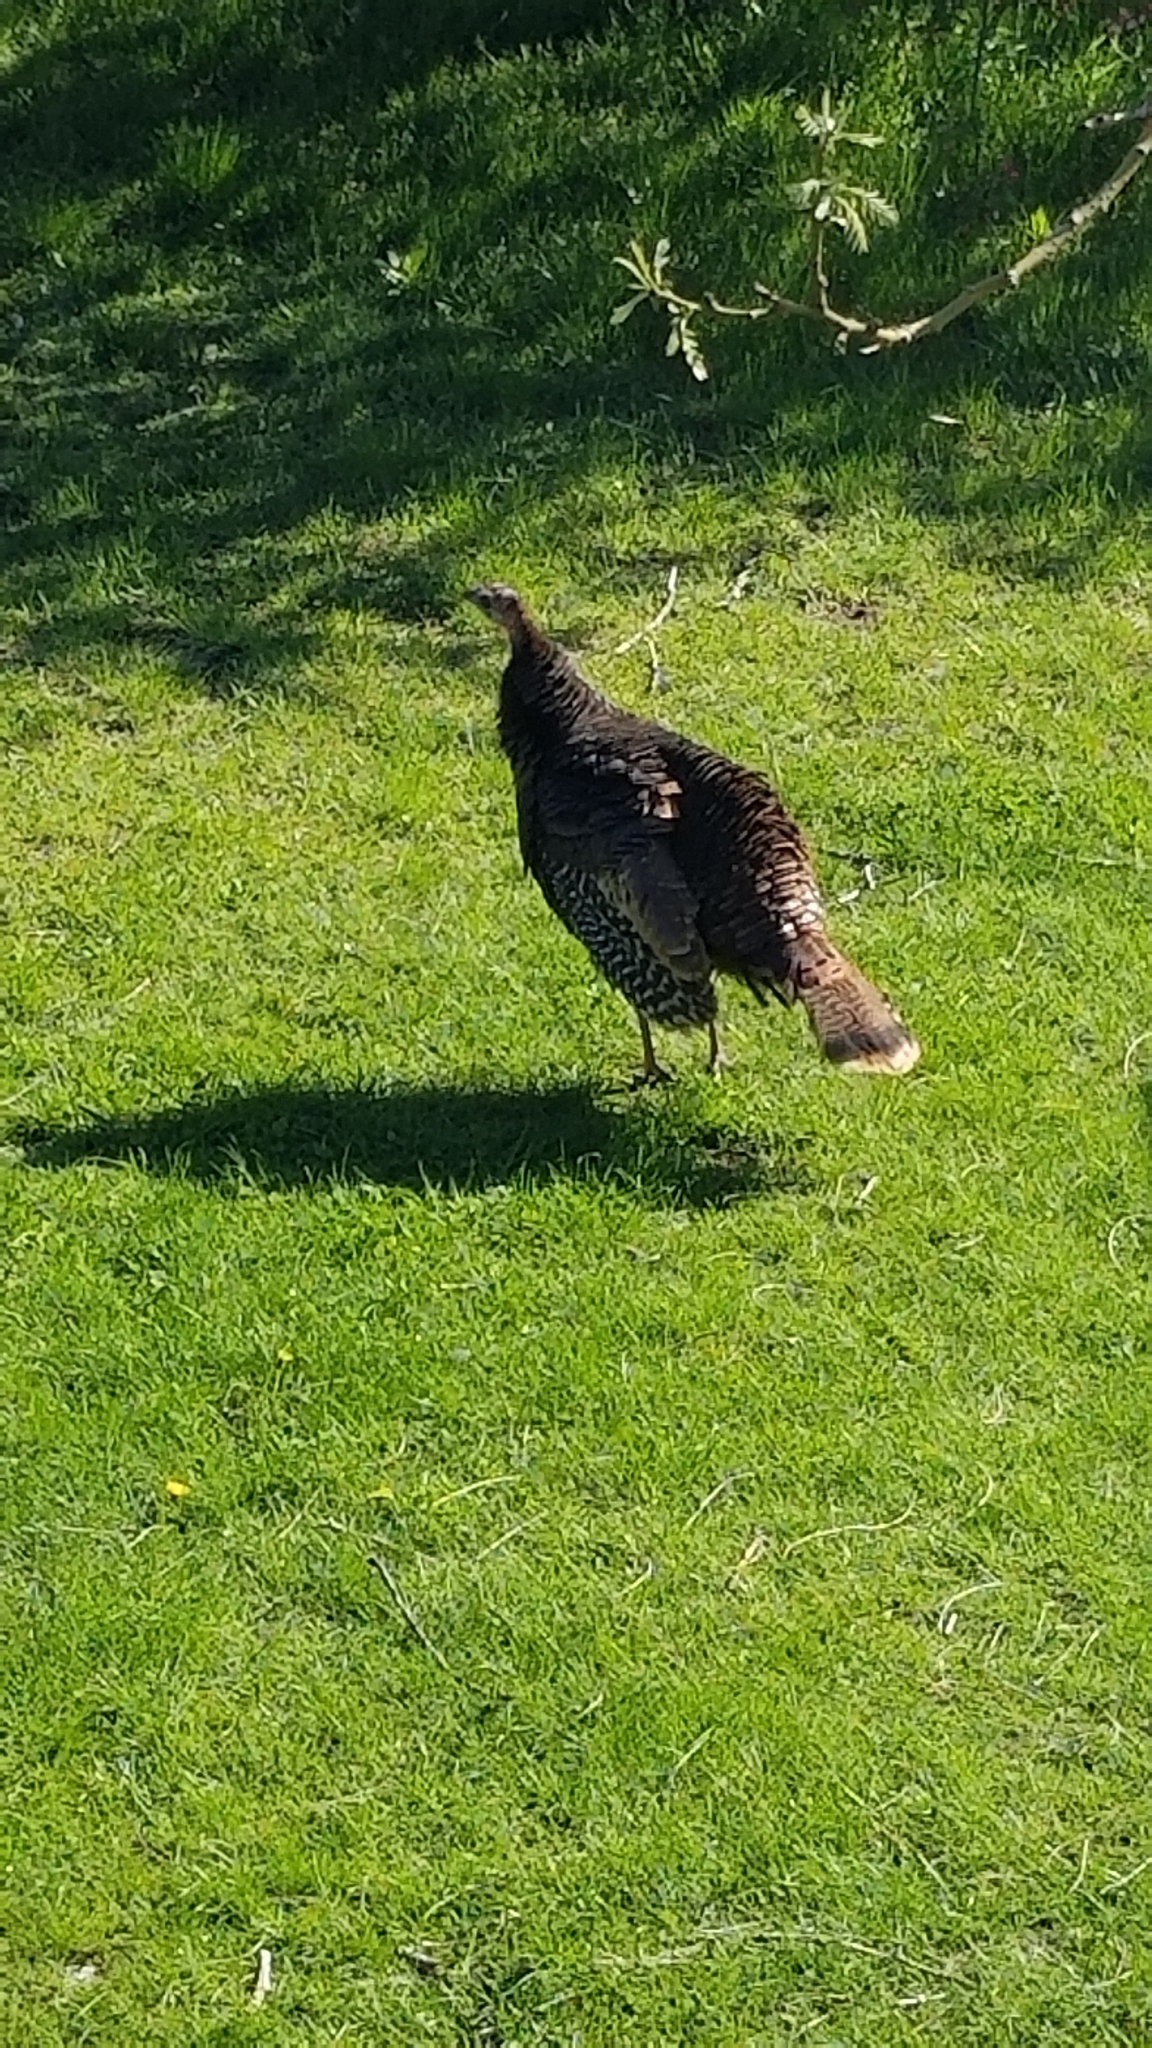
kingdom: Animalia
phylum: Chordata
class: Aves
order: Galliformes
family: Phasianidae
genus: Meleagris
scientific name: Meleagris gallopavo
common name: Wild turkey
